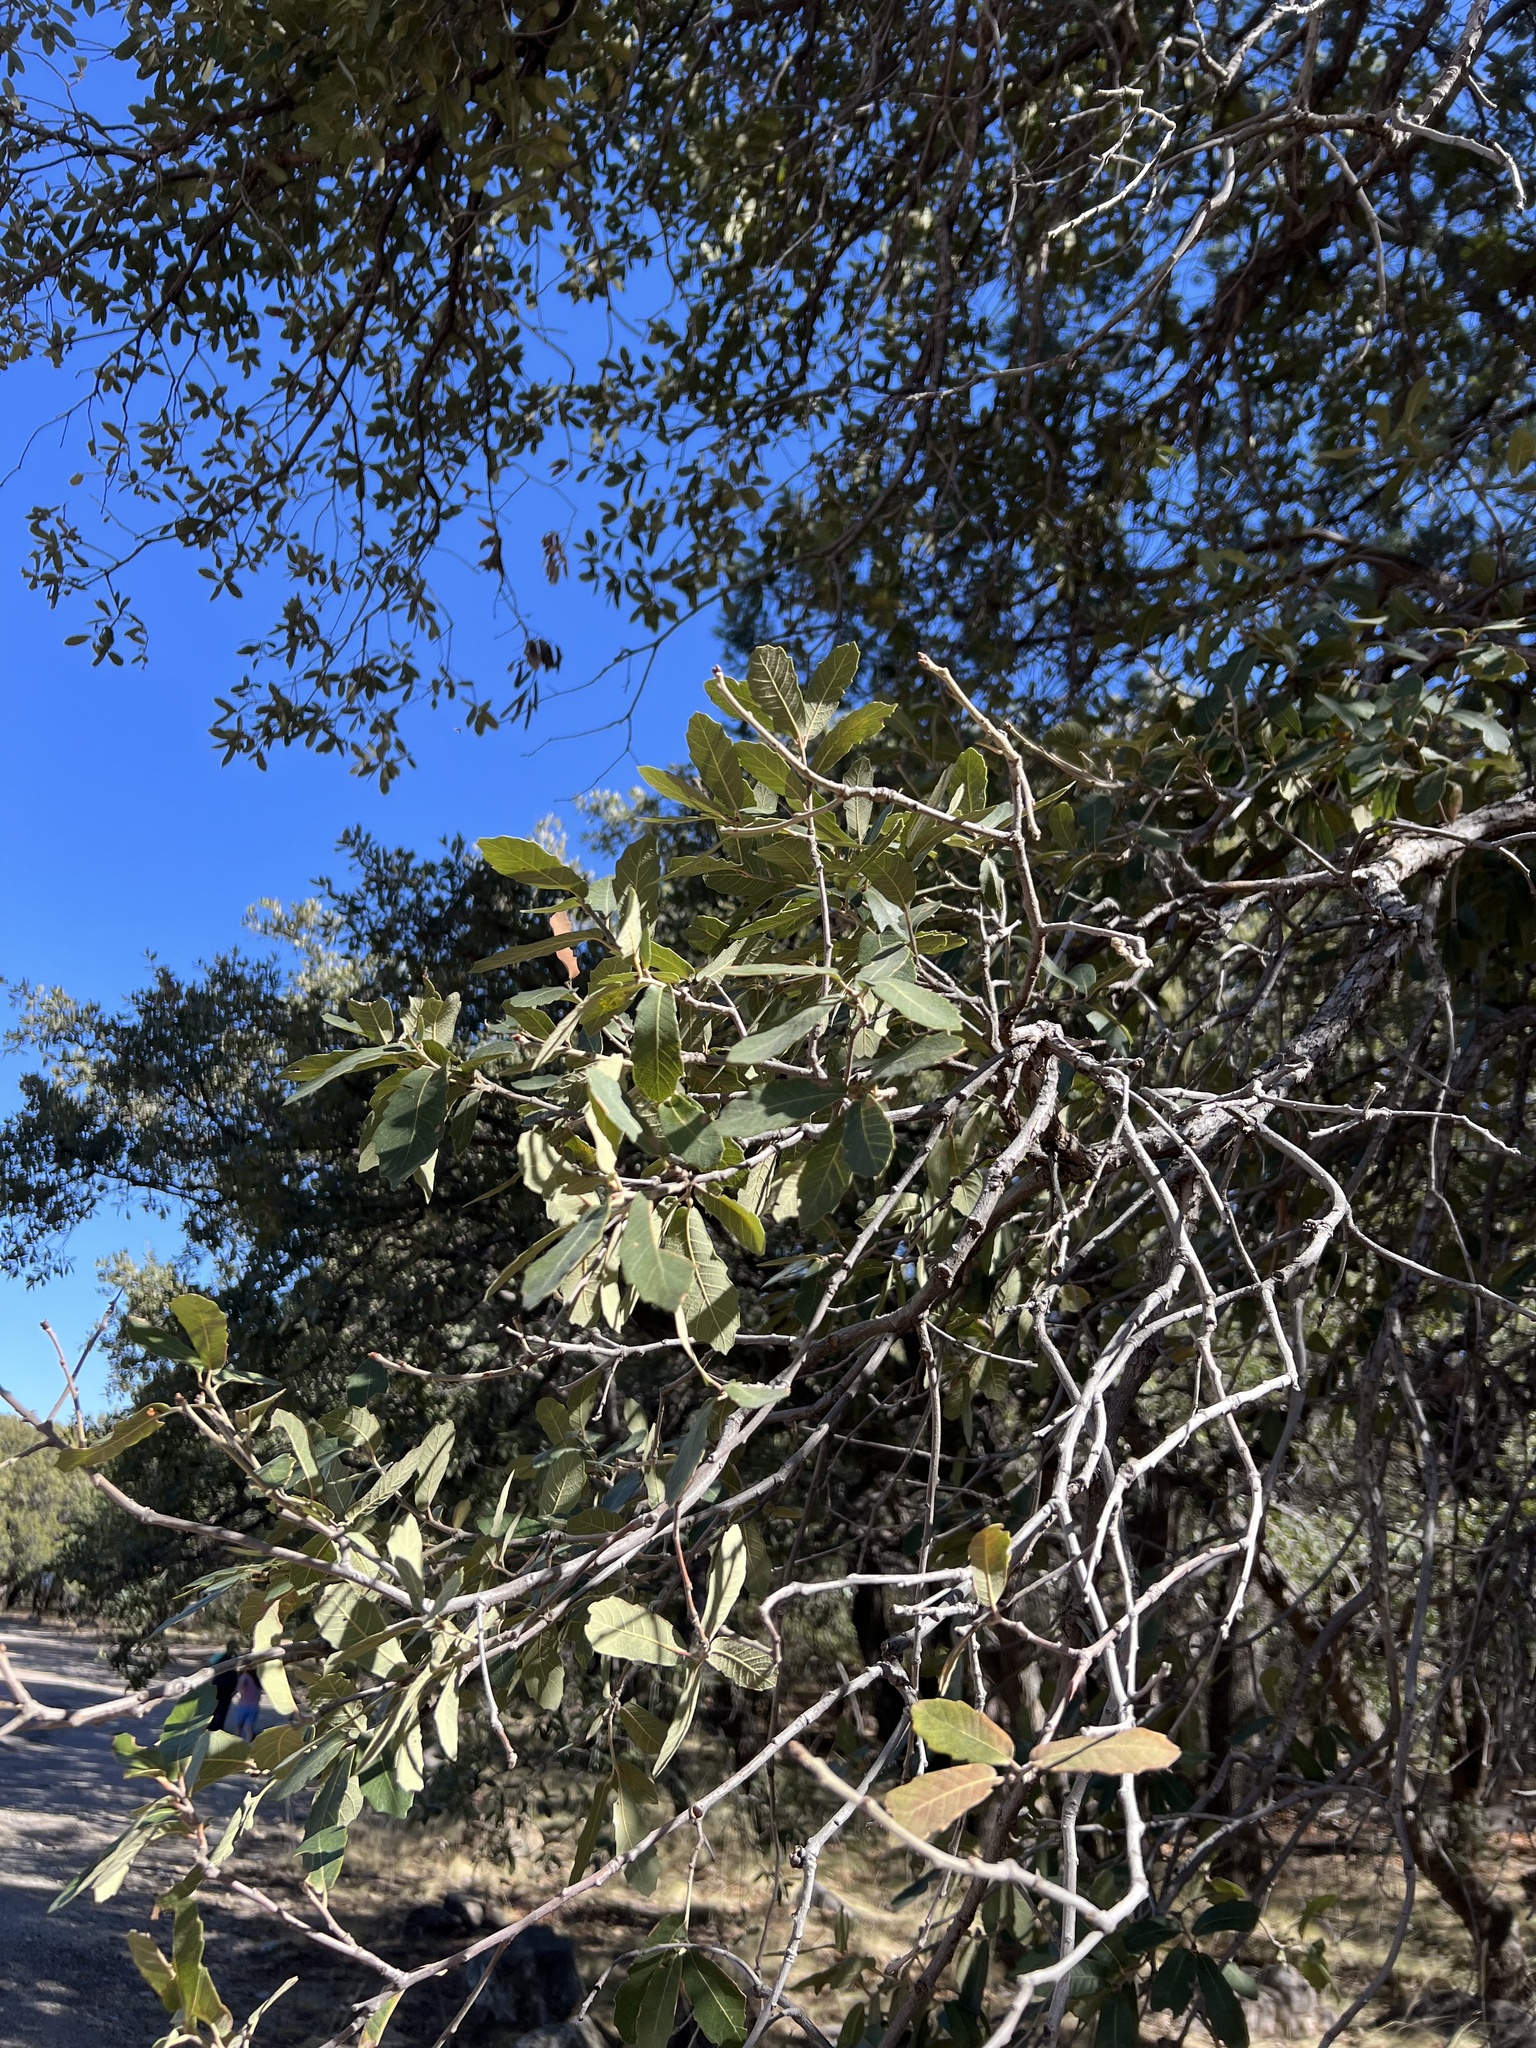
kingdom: Plantae
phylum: Tracheophyta
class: Magnoliopsida
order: Fagales
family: Fagaceae
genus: Quercus
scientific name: Quercus arizonica
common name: Arizona white oak
